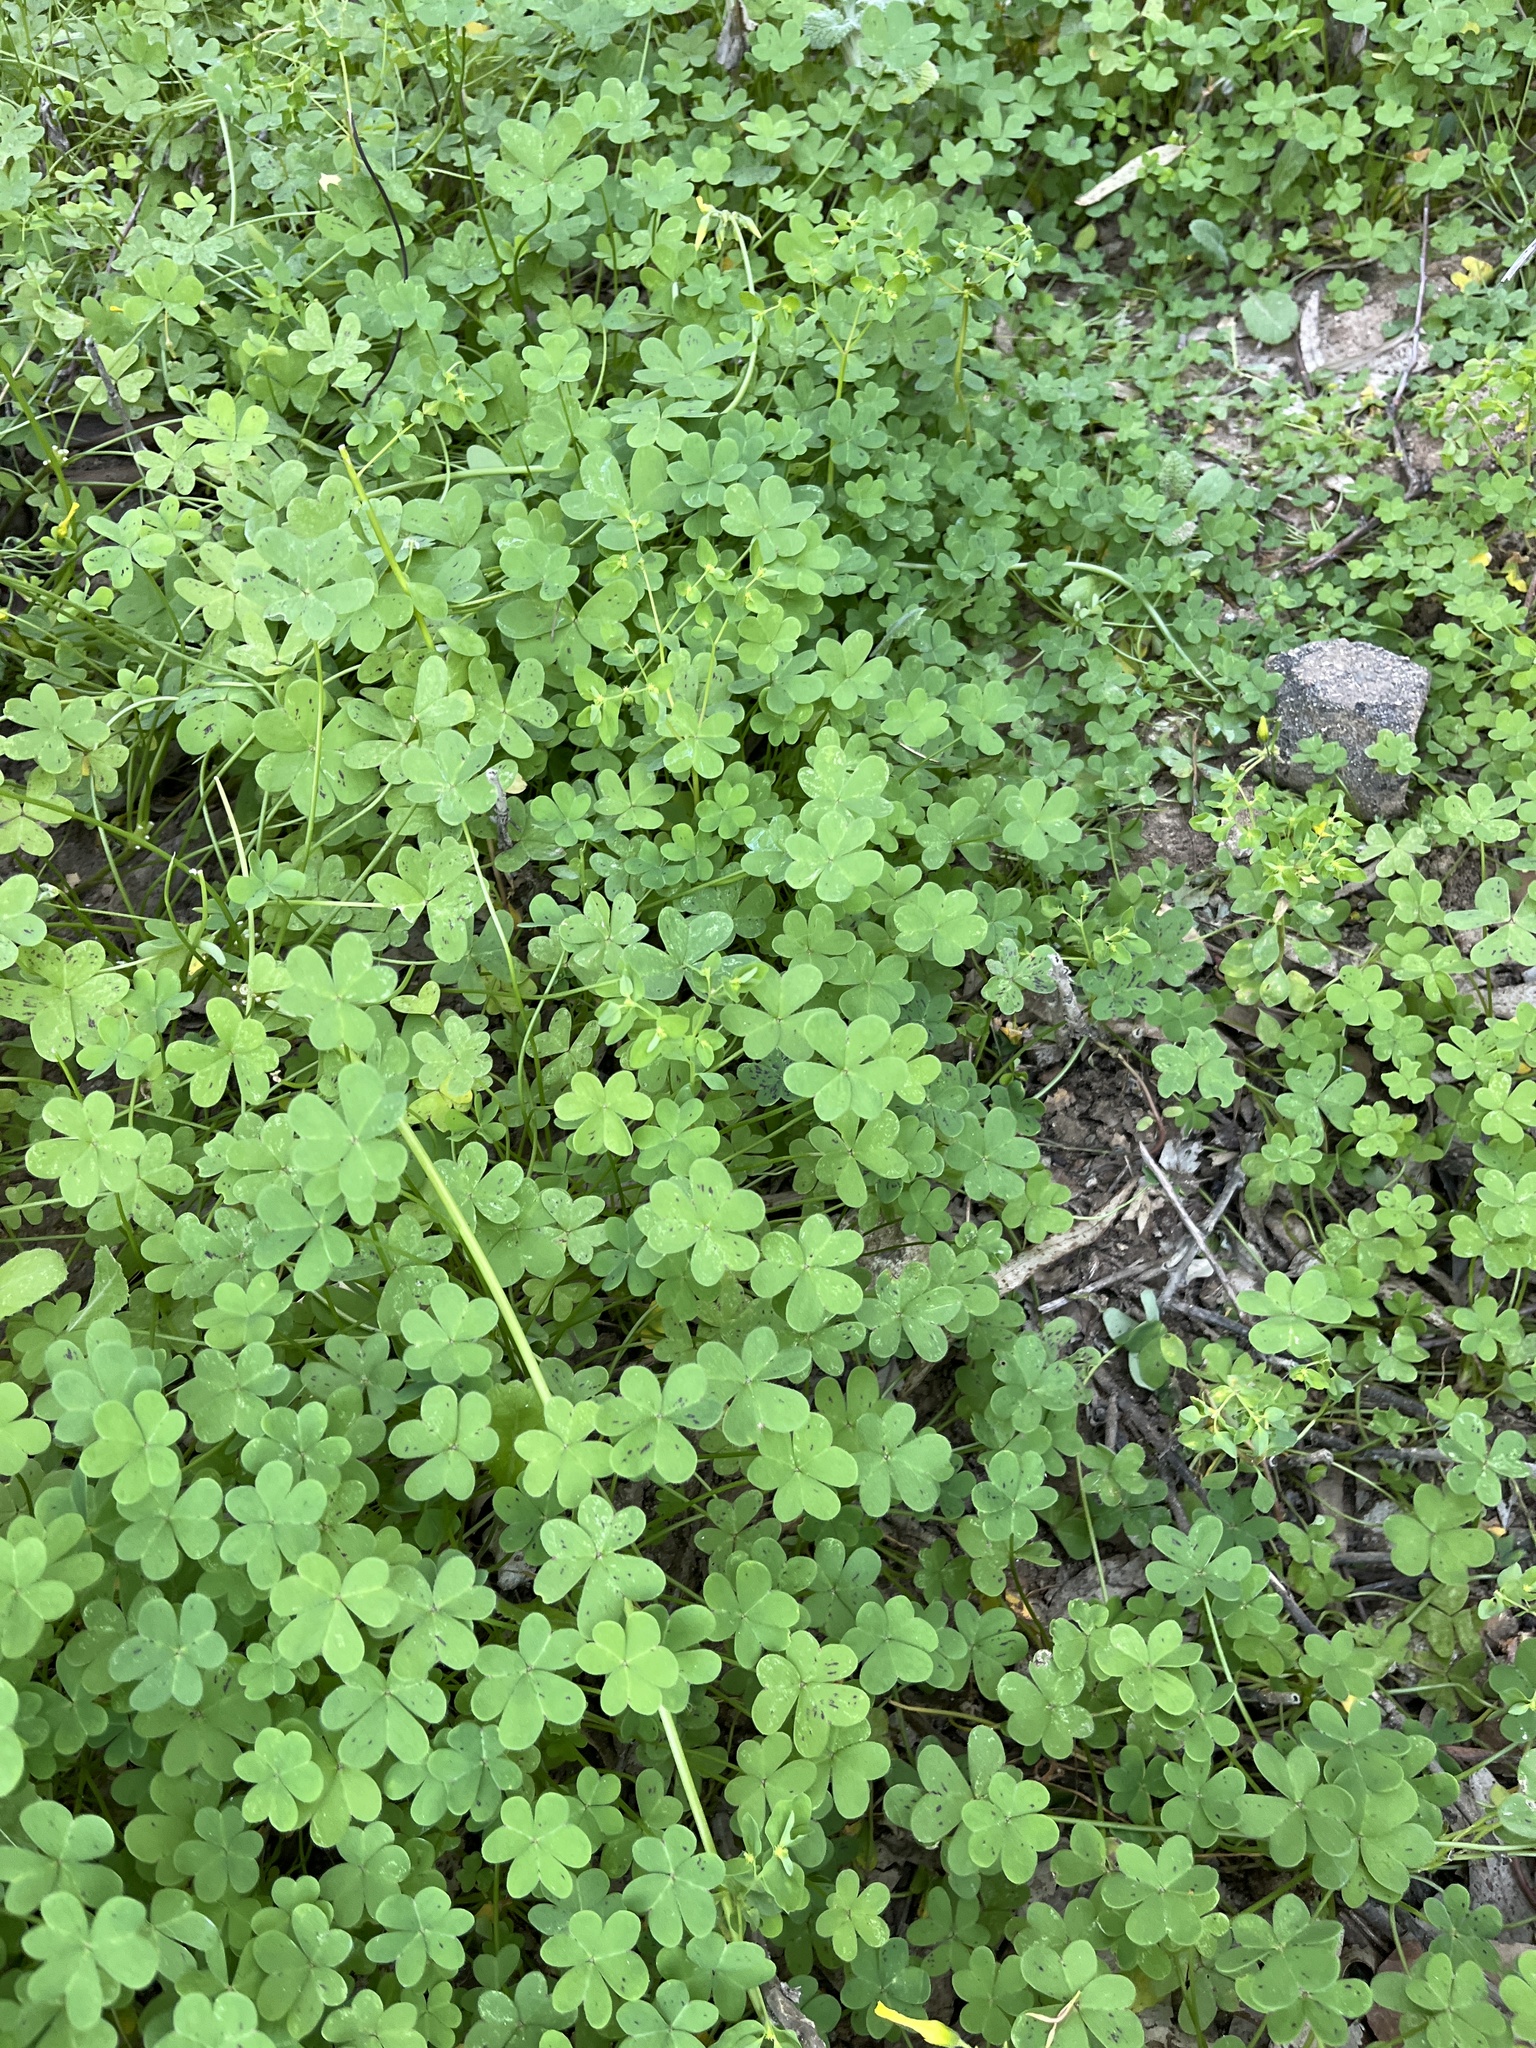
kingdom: Plantae
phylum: Tracheophyta
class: Magnoliopsida
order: Oxalidales
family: Oxalidaceae
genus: Oxalis
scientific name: Oxalis pes-caprae
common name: Bermuda-buttercup
